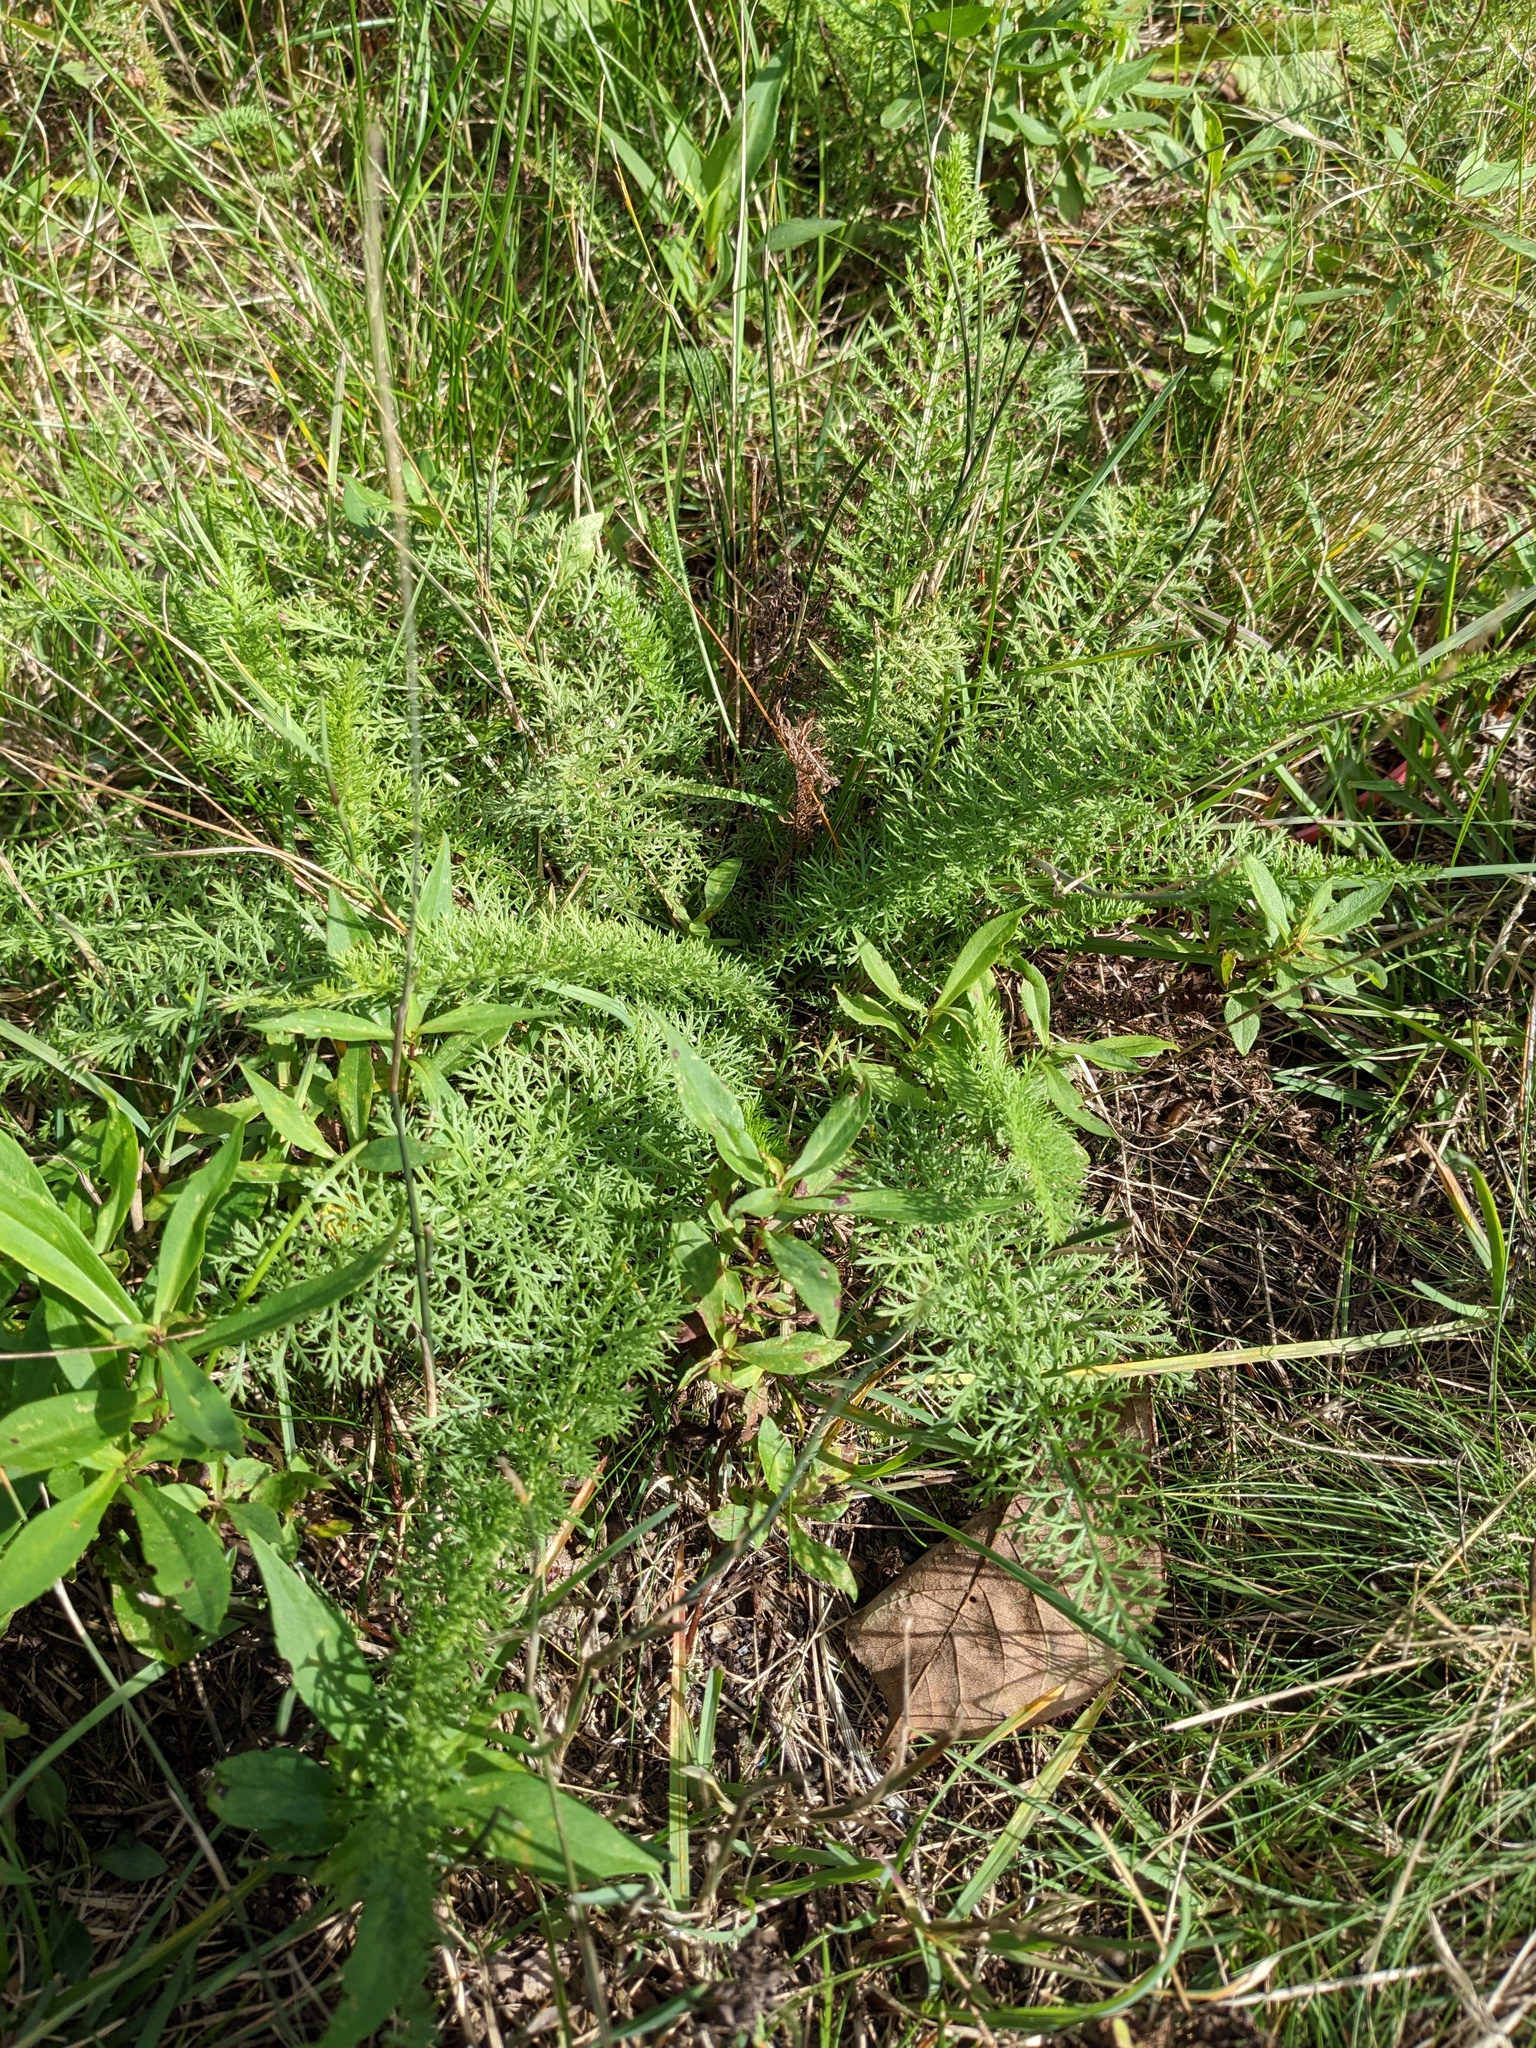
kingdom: Plantae
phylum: Tracheophyta
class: Magnoliopsida
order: Asterales
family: Asteraceae
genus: Achillea
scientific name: Achillea millefolium
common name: Yarrow
